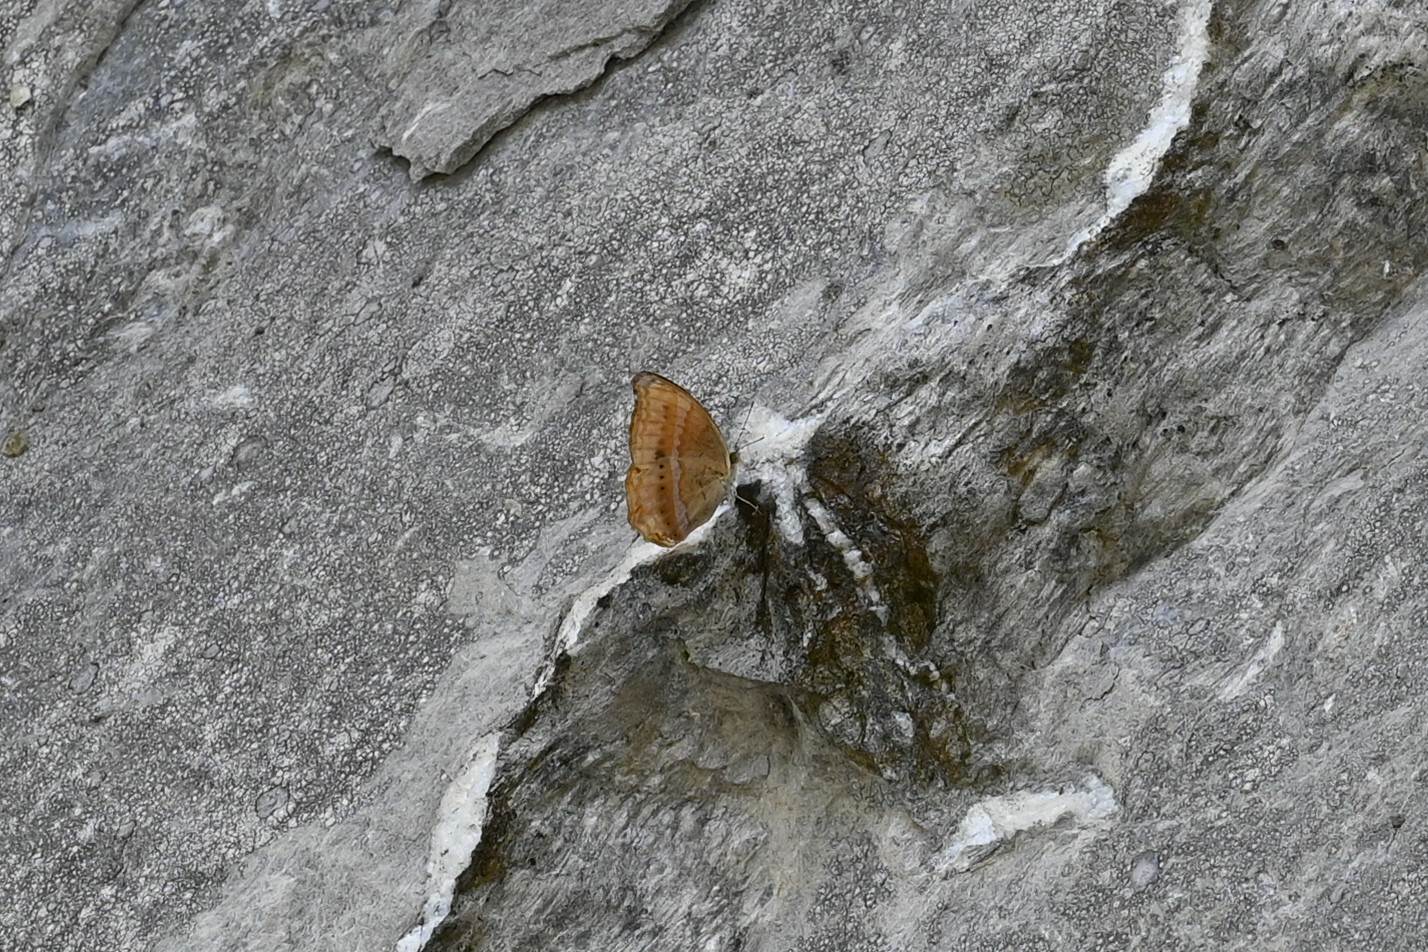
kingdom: Animalia
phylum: Arthropoda
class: Insecta
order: Lepidoptera
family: Nymphalidae
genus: Cirrochroa
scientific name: Cirrochroa aoris
